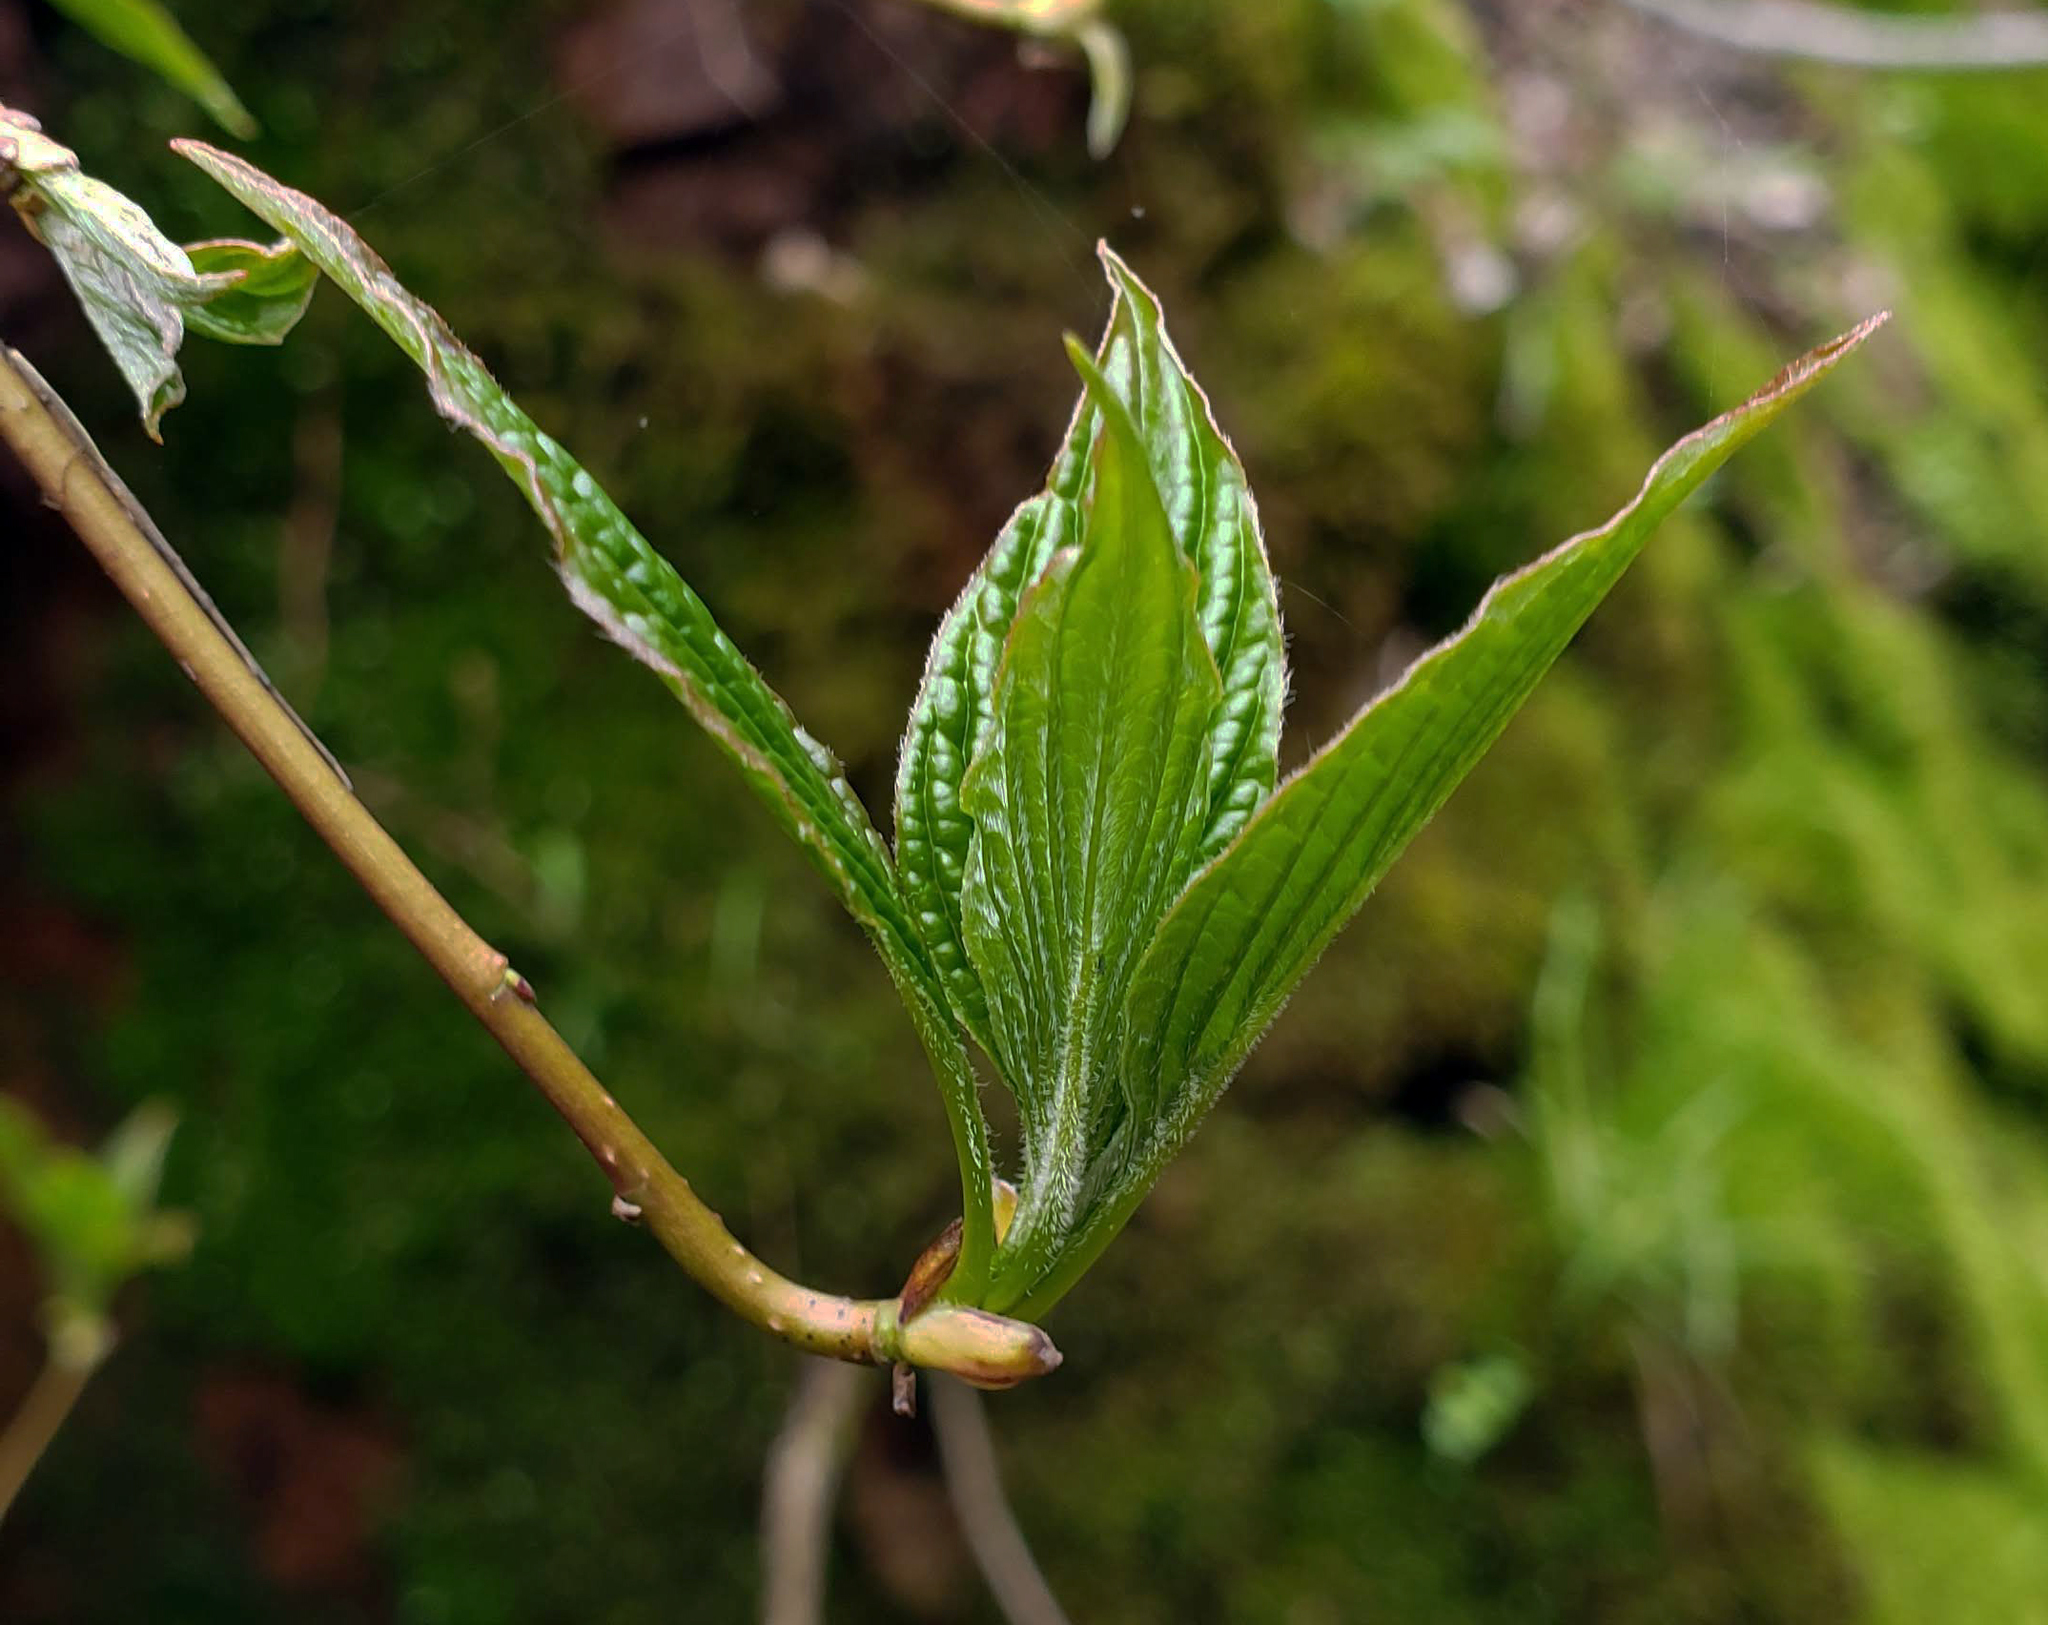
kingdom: Plantae
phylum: Tracheophyta
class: Magnoliopsida
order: Cornales
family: Cornaceae
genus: Cornus
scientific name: Cornus alternifolia
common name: Pagoda dogwood
